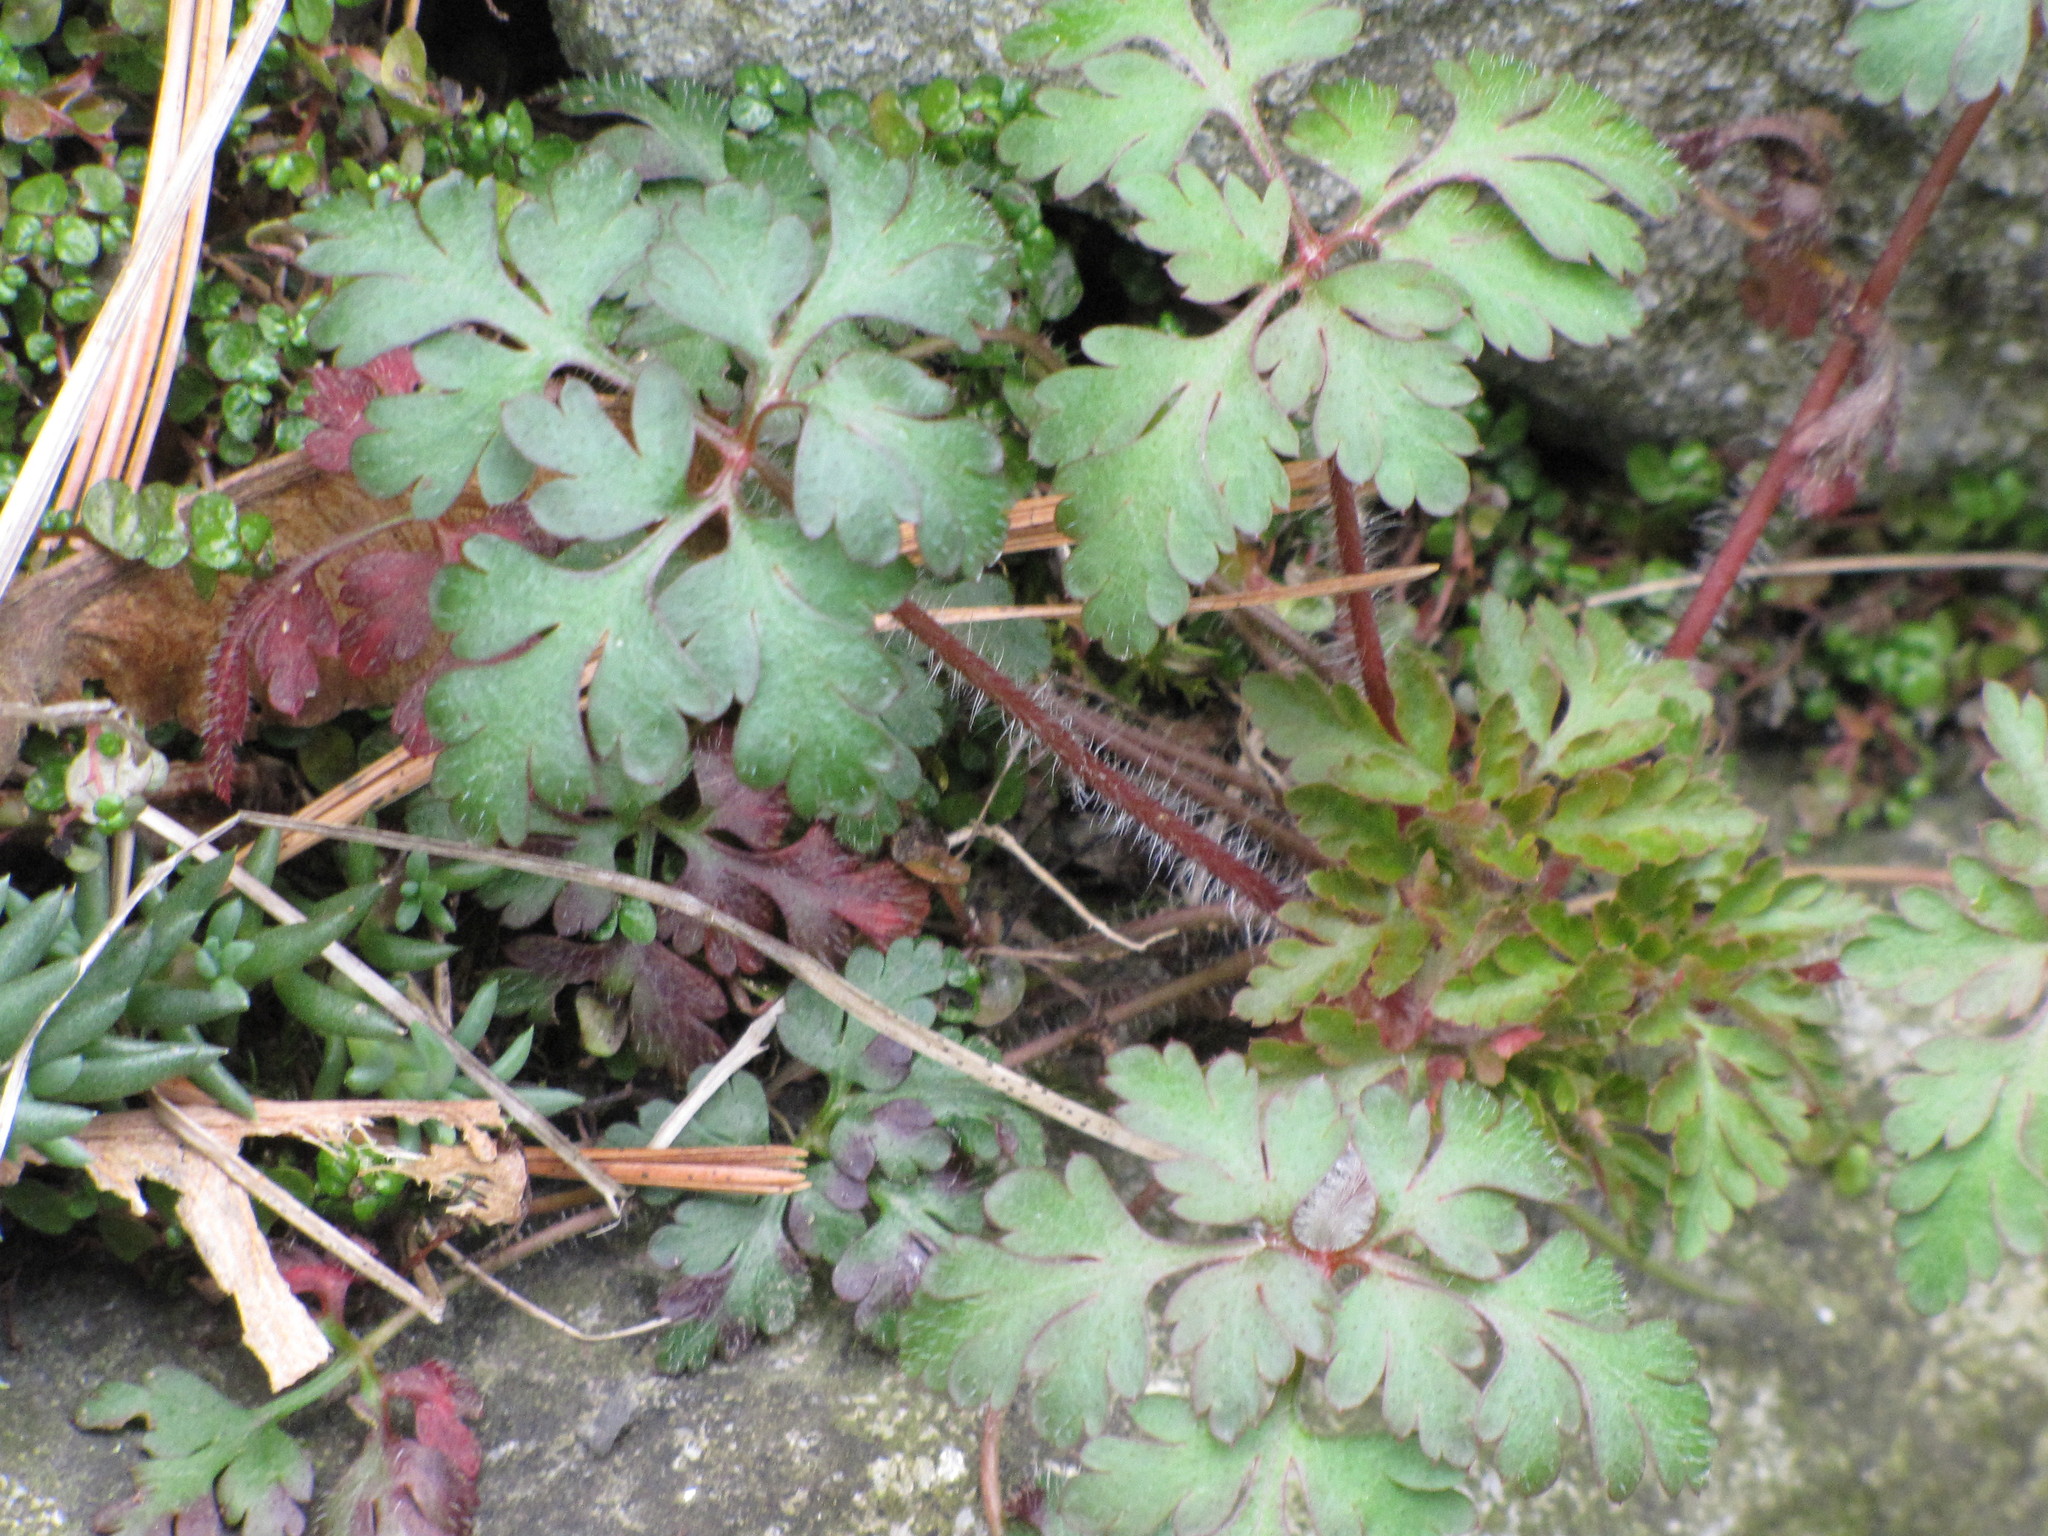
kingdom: Plantae
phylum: Tracheophyta
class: Magnoliopsida
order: Geraniales
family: Geraniaceae
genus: Geranium
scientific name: Geranium robertianum
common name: Herb-robert
